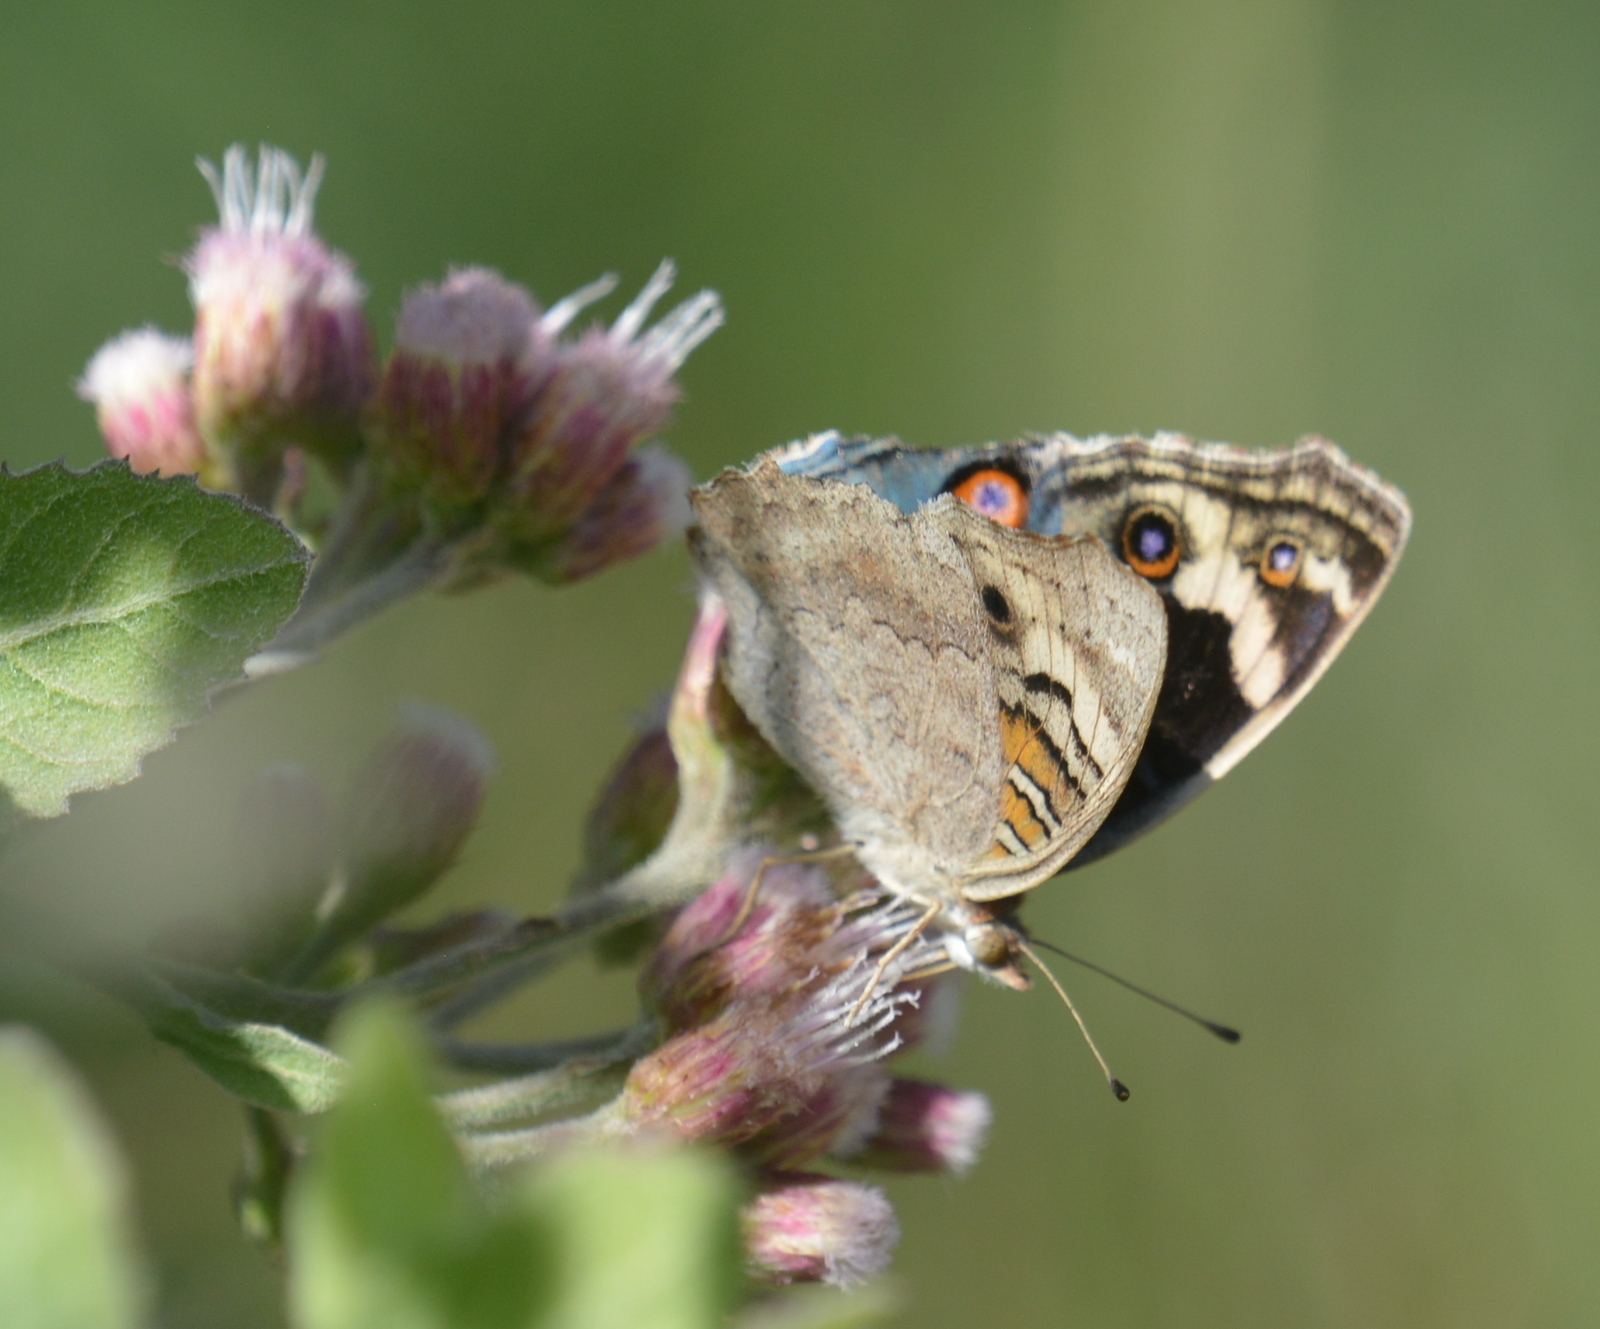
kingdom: Animalia
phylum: Arthropoda
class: Insecta
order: Lepidoptera
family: Nymphalidae
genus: Junonia
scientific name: Junonia orithya
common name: Blue pansy
